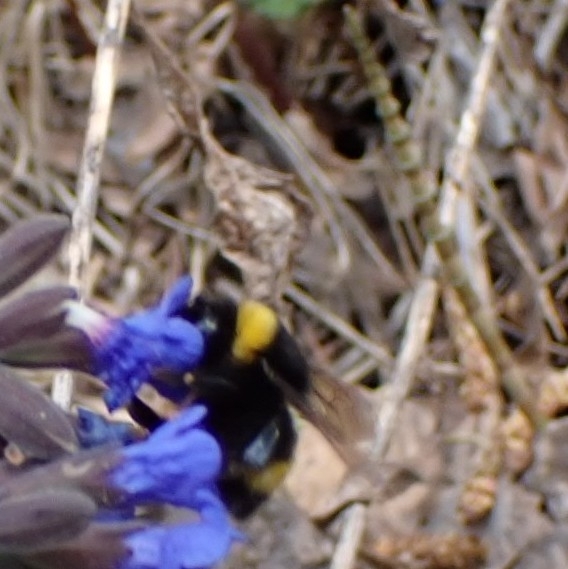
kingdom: Animalia
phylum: Arthropoda
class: Insecta
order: Hymenoptera
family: Apidae
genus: Bombus
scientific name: Bombus
